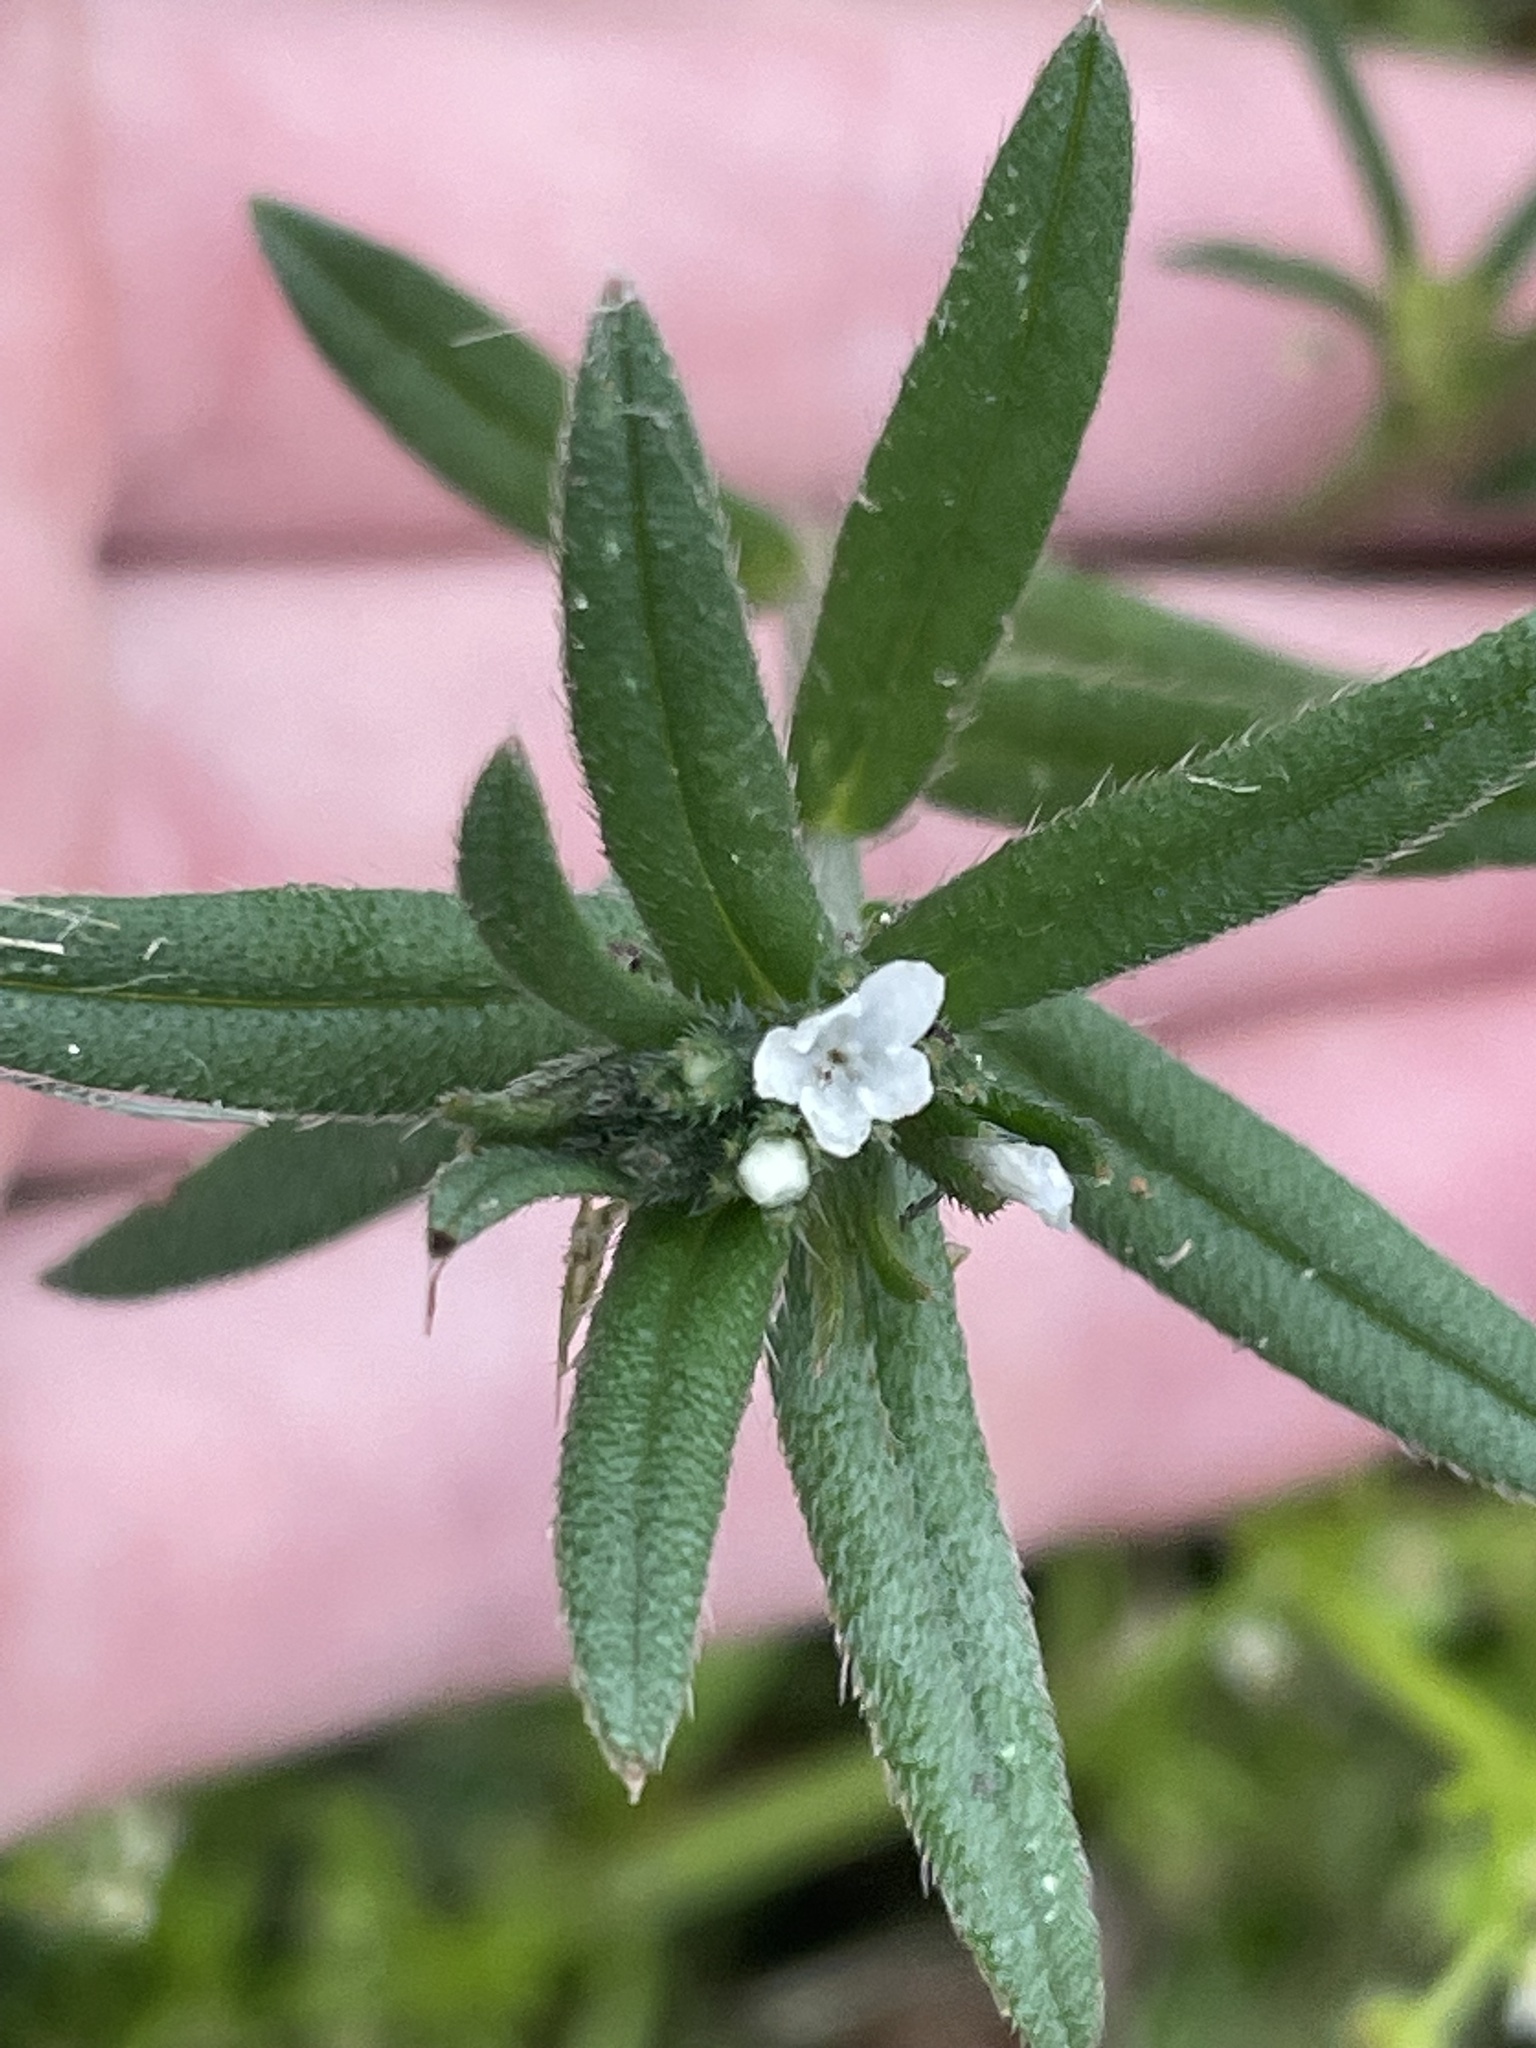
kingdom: Plantae
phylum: Tracheophyta
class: Magnoliopsida
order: Boraginales
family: Boraginaceae
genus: Buglossoides
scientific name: Buglossoides arvensis
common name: Corn gromwell
